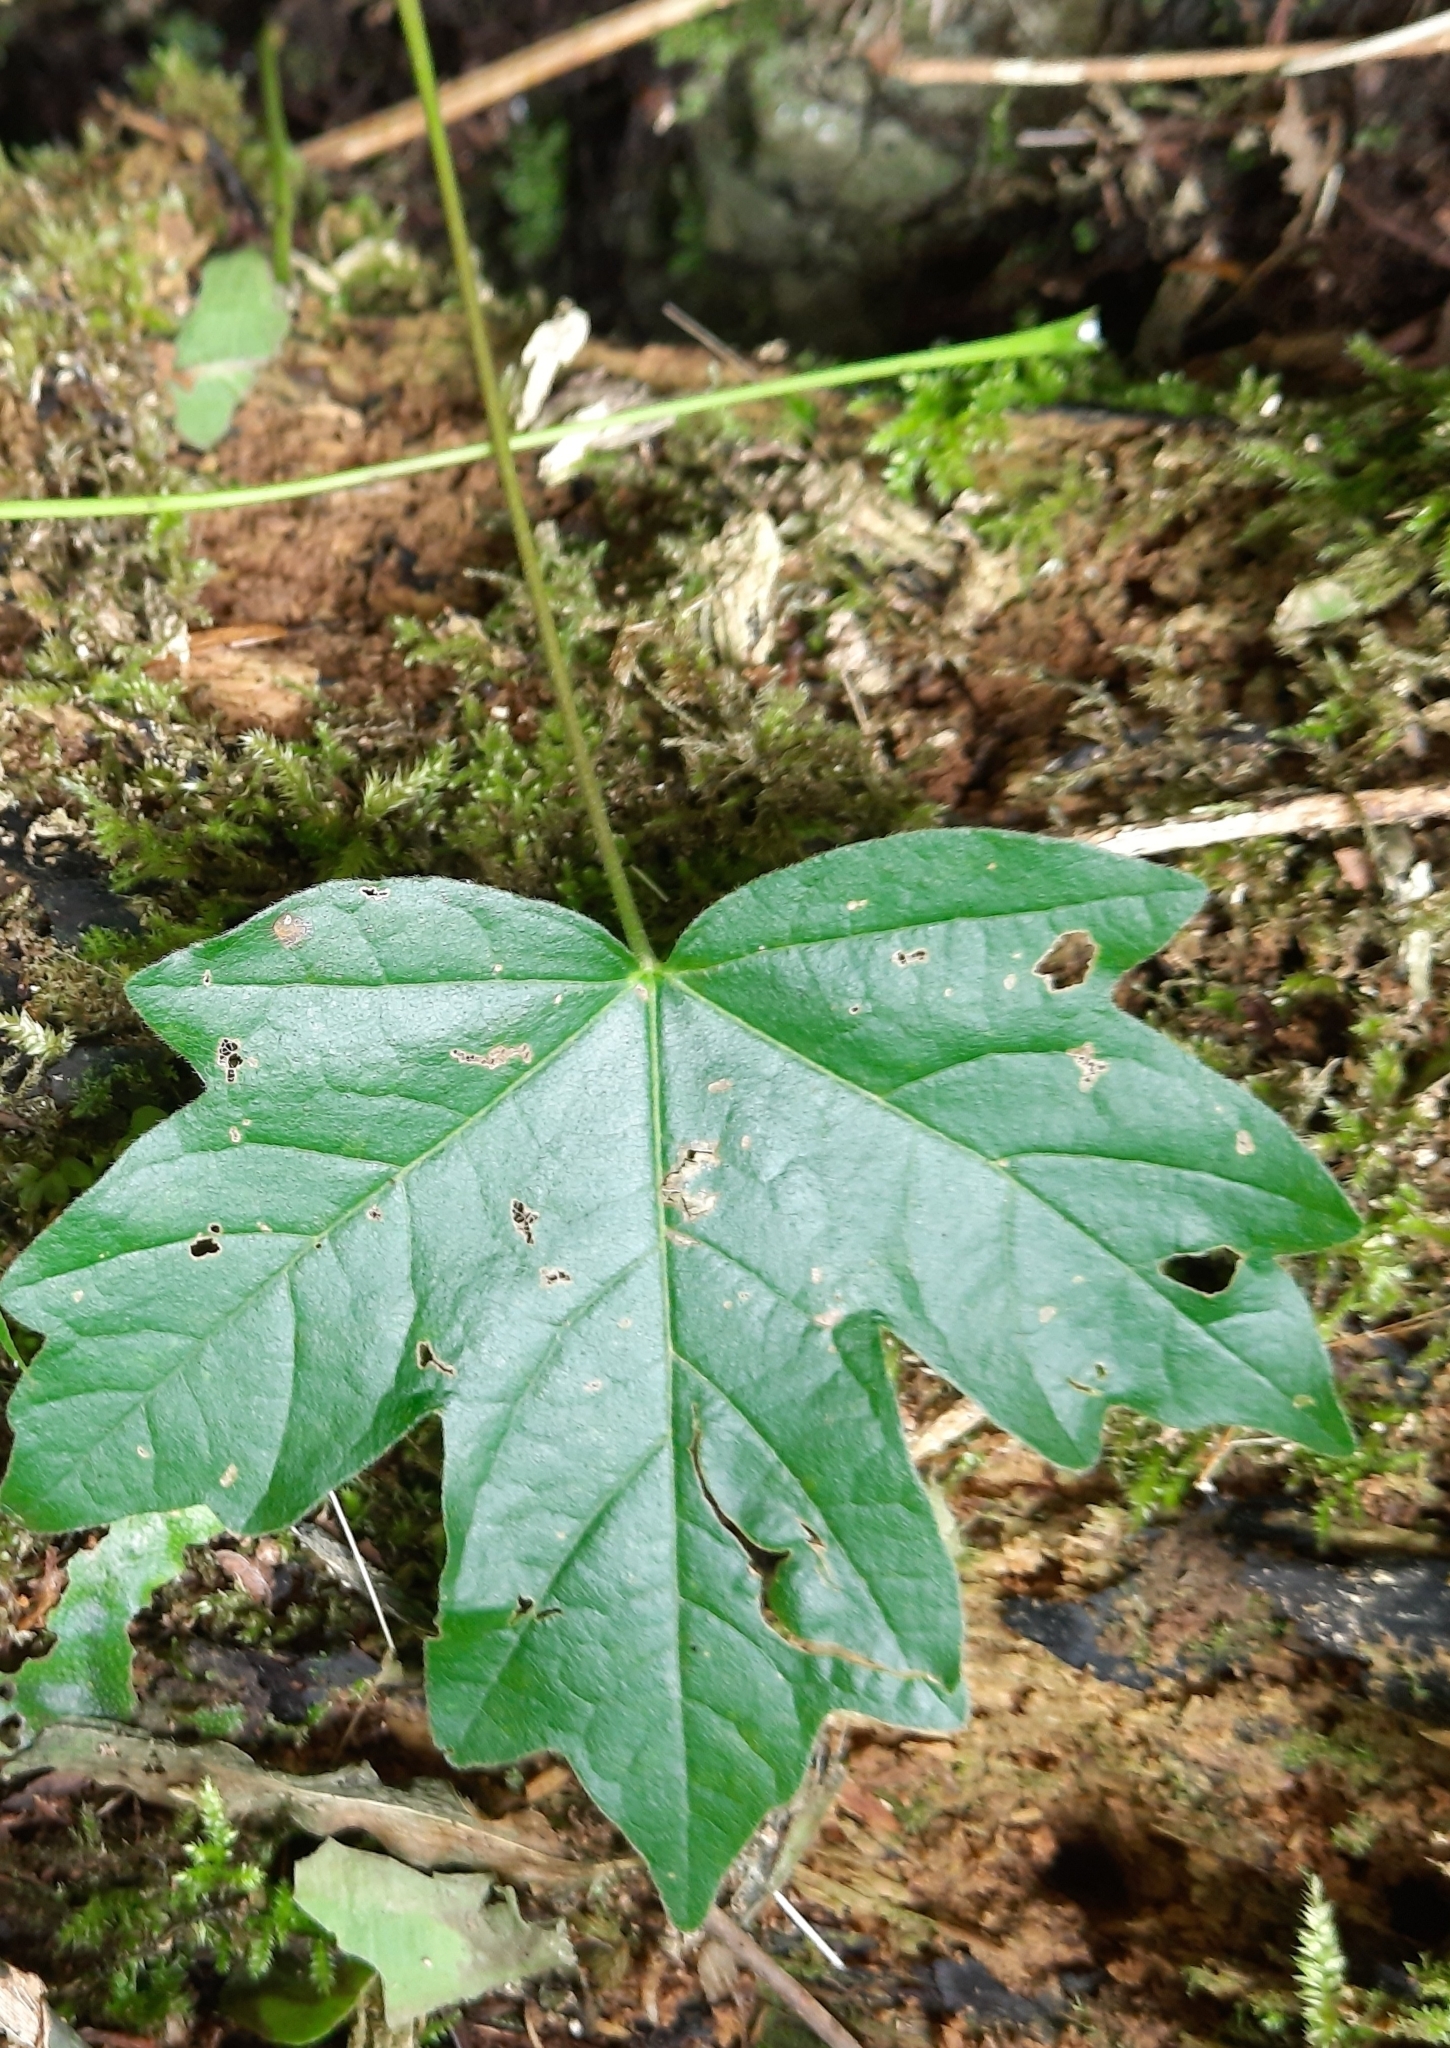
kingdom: Plantae
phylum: Tracheophyta
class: Magnoliopsida
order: Sapindales
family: Sapindaceae
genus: Acer
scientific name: Acer campestre
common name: Field maple
